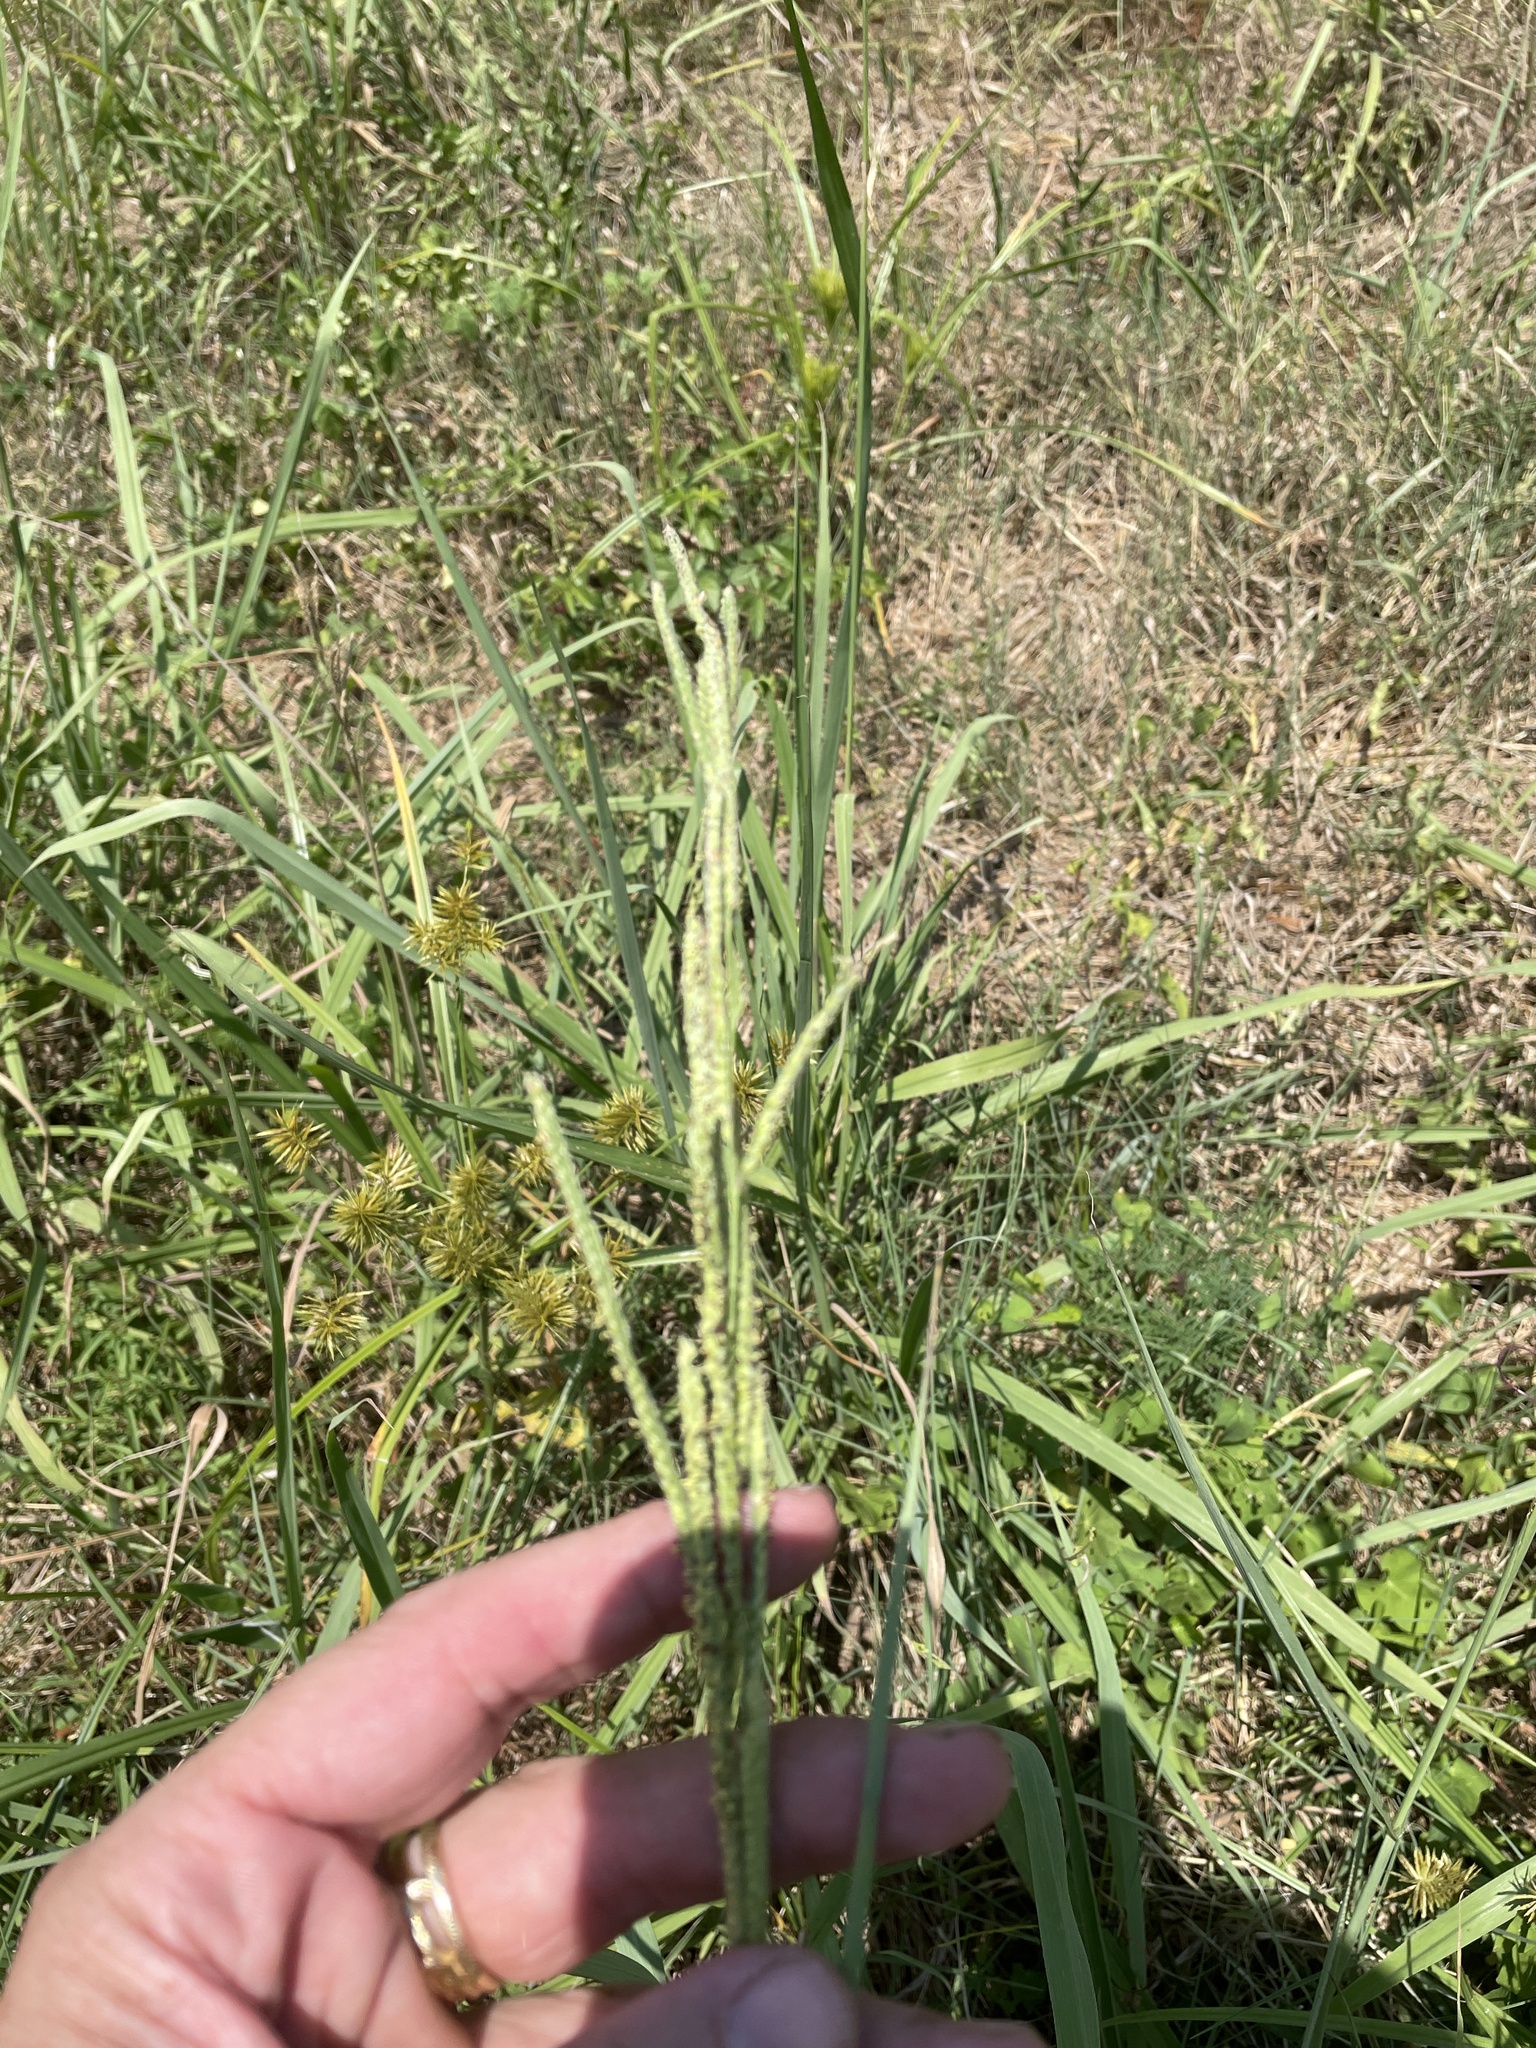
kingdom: Plantae
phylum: Tracheophyta
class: Liliopsida
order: Poales
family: Poaceae
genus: Paspalum
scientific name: Paspalum urvillei
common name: Vasey's grass
